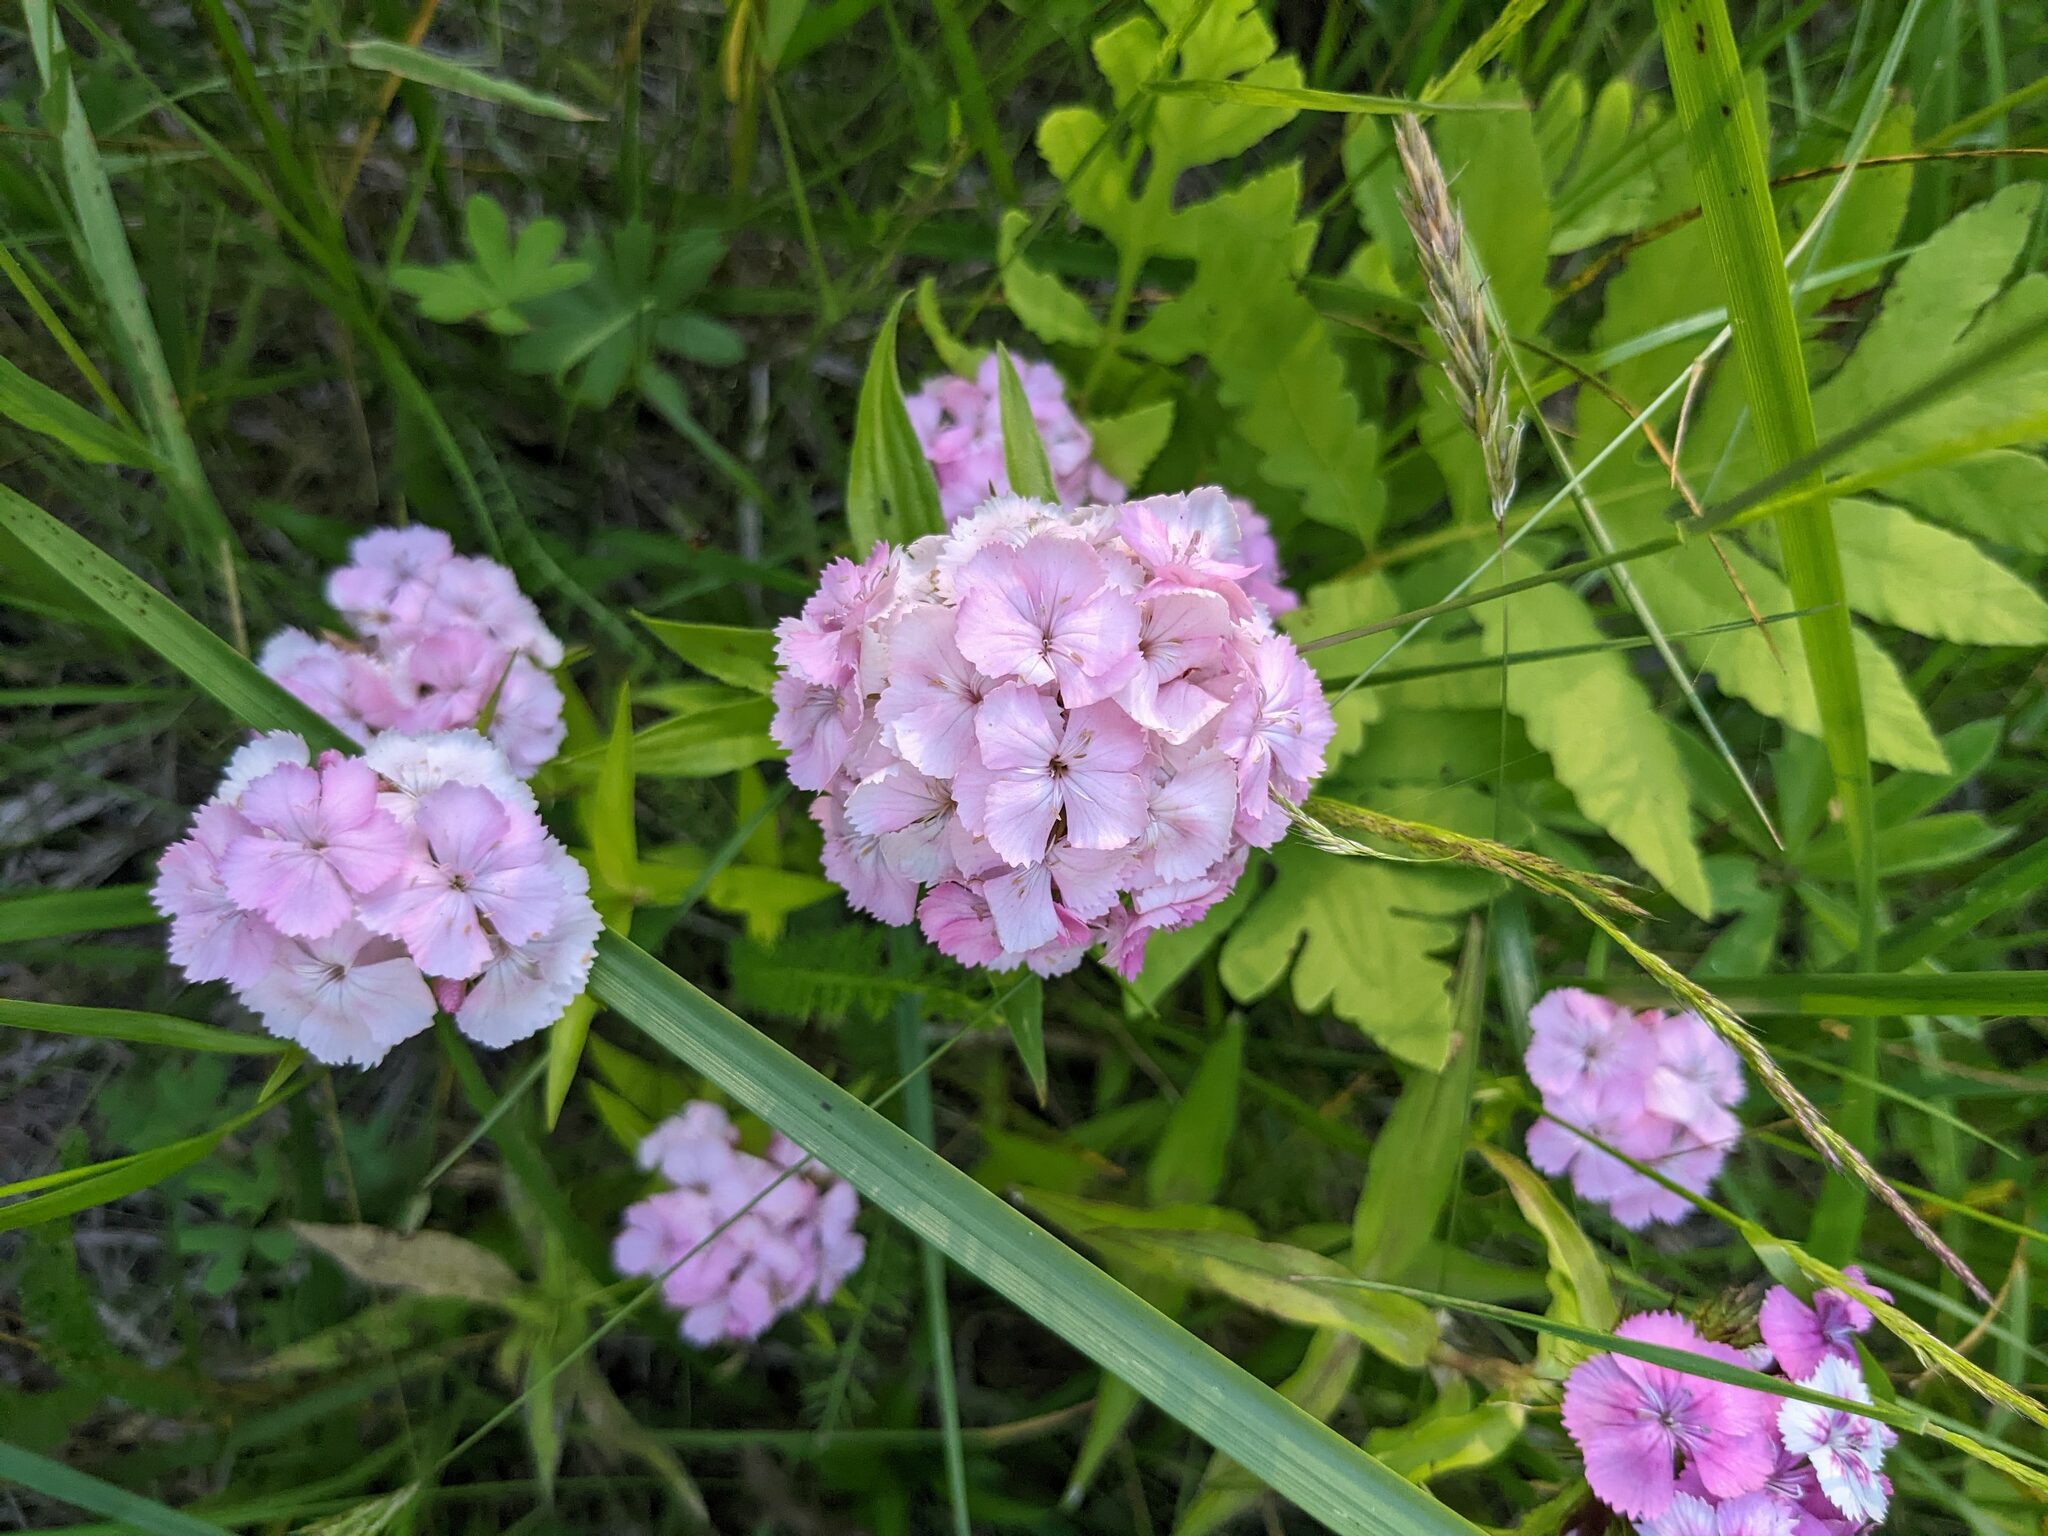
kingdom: Plantae
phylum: Tracheophyta
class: Magnoliopsida
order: Caryophyllales
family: Caryophyllaceae
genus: Dianthus
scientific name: Dianthus barbatus
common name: Sweet-william
